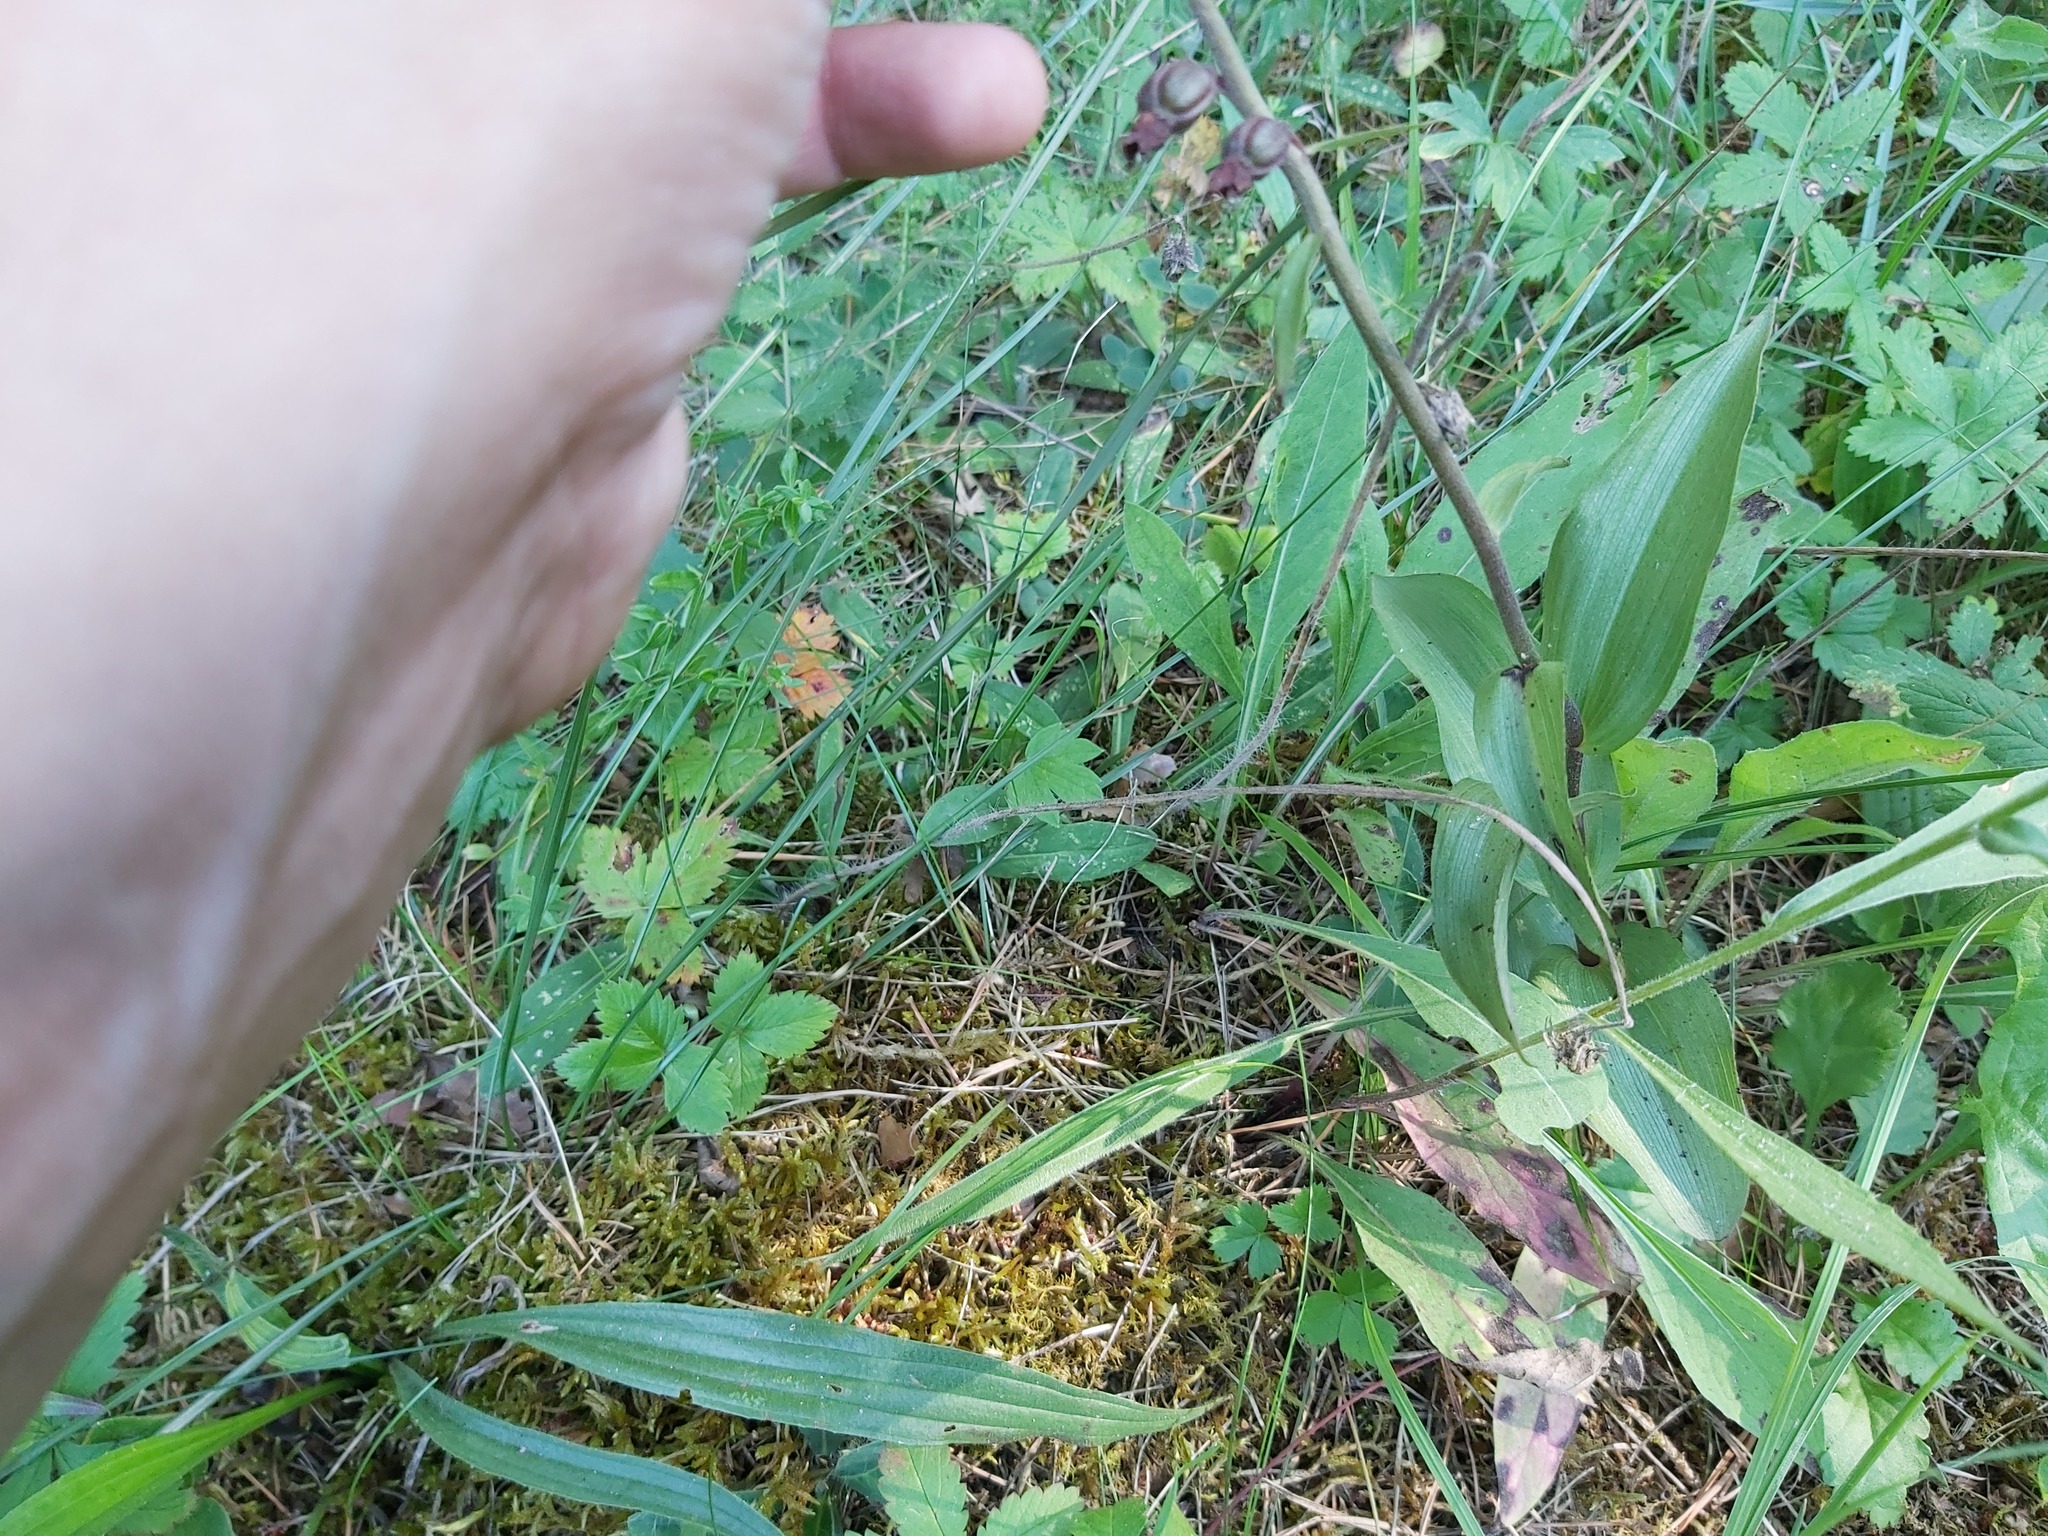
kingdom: Plantae
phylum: Tracheophyta
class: Liliopsida
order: Asparagales
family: Orchidaceae
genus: Epipactis
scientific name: Epipactis atrorubens
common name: Dark-red helleborine
